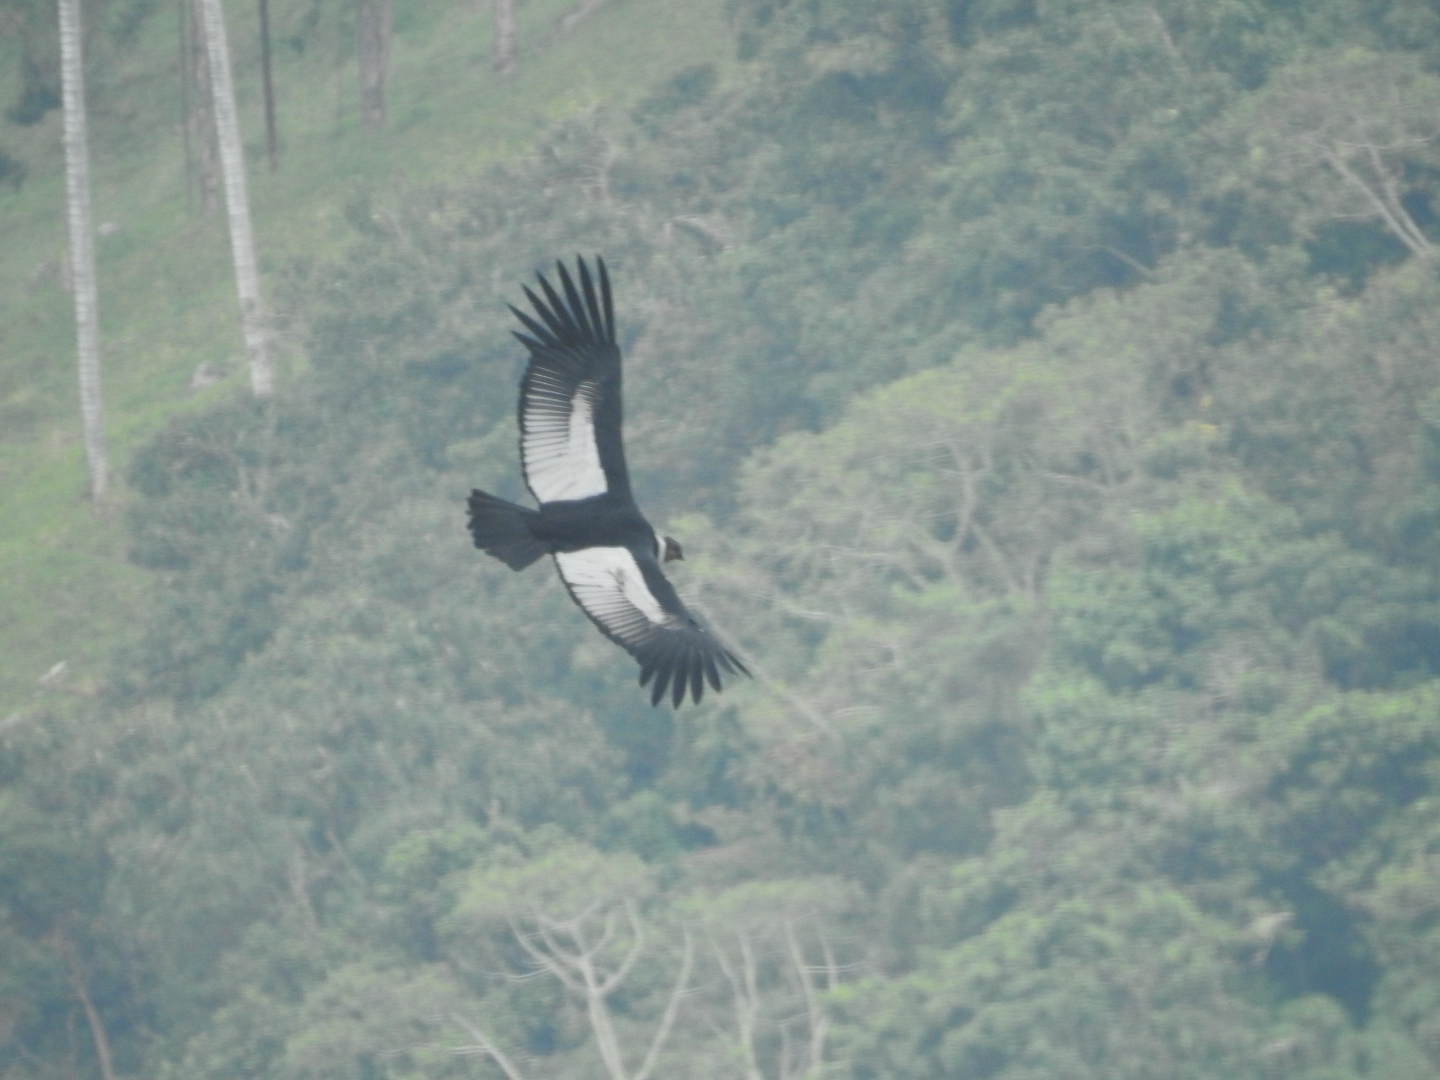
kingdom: Animalia
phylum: Chordata
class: Aves
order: Accipitriformes
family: Cathartidae
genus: Vultur
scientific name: Vultur gryphus
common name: Andean condor
